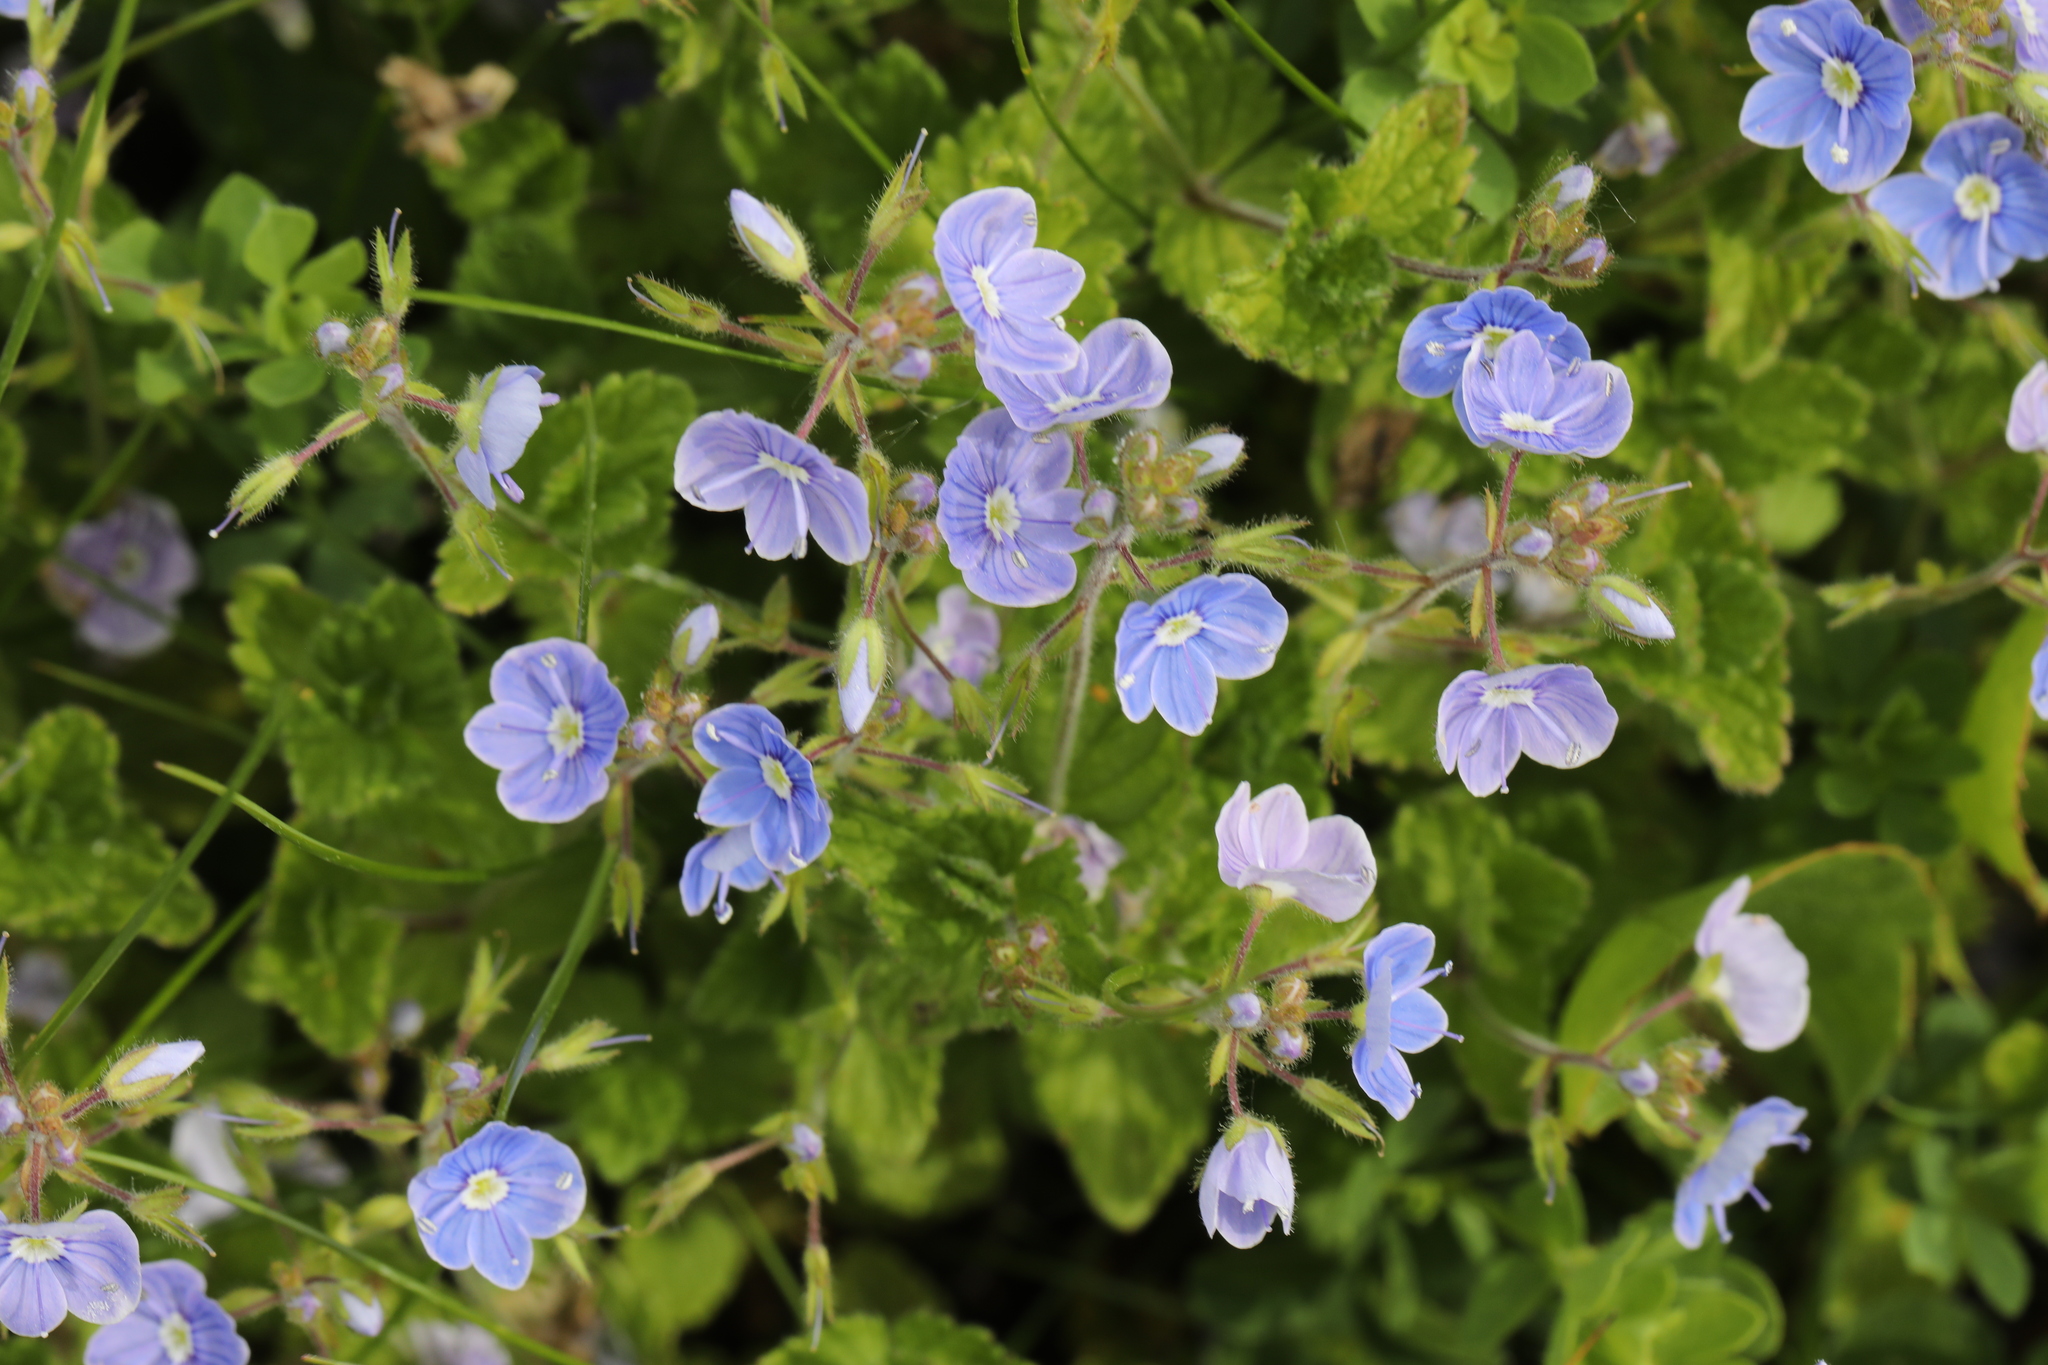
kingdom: Plantae
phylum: Tracheophyta
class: Magnoliopsida
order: Lamiales
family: Plantaginaceae
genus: Veronica
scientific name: Veronica chamaedrys
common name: Germander speedwell
